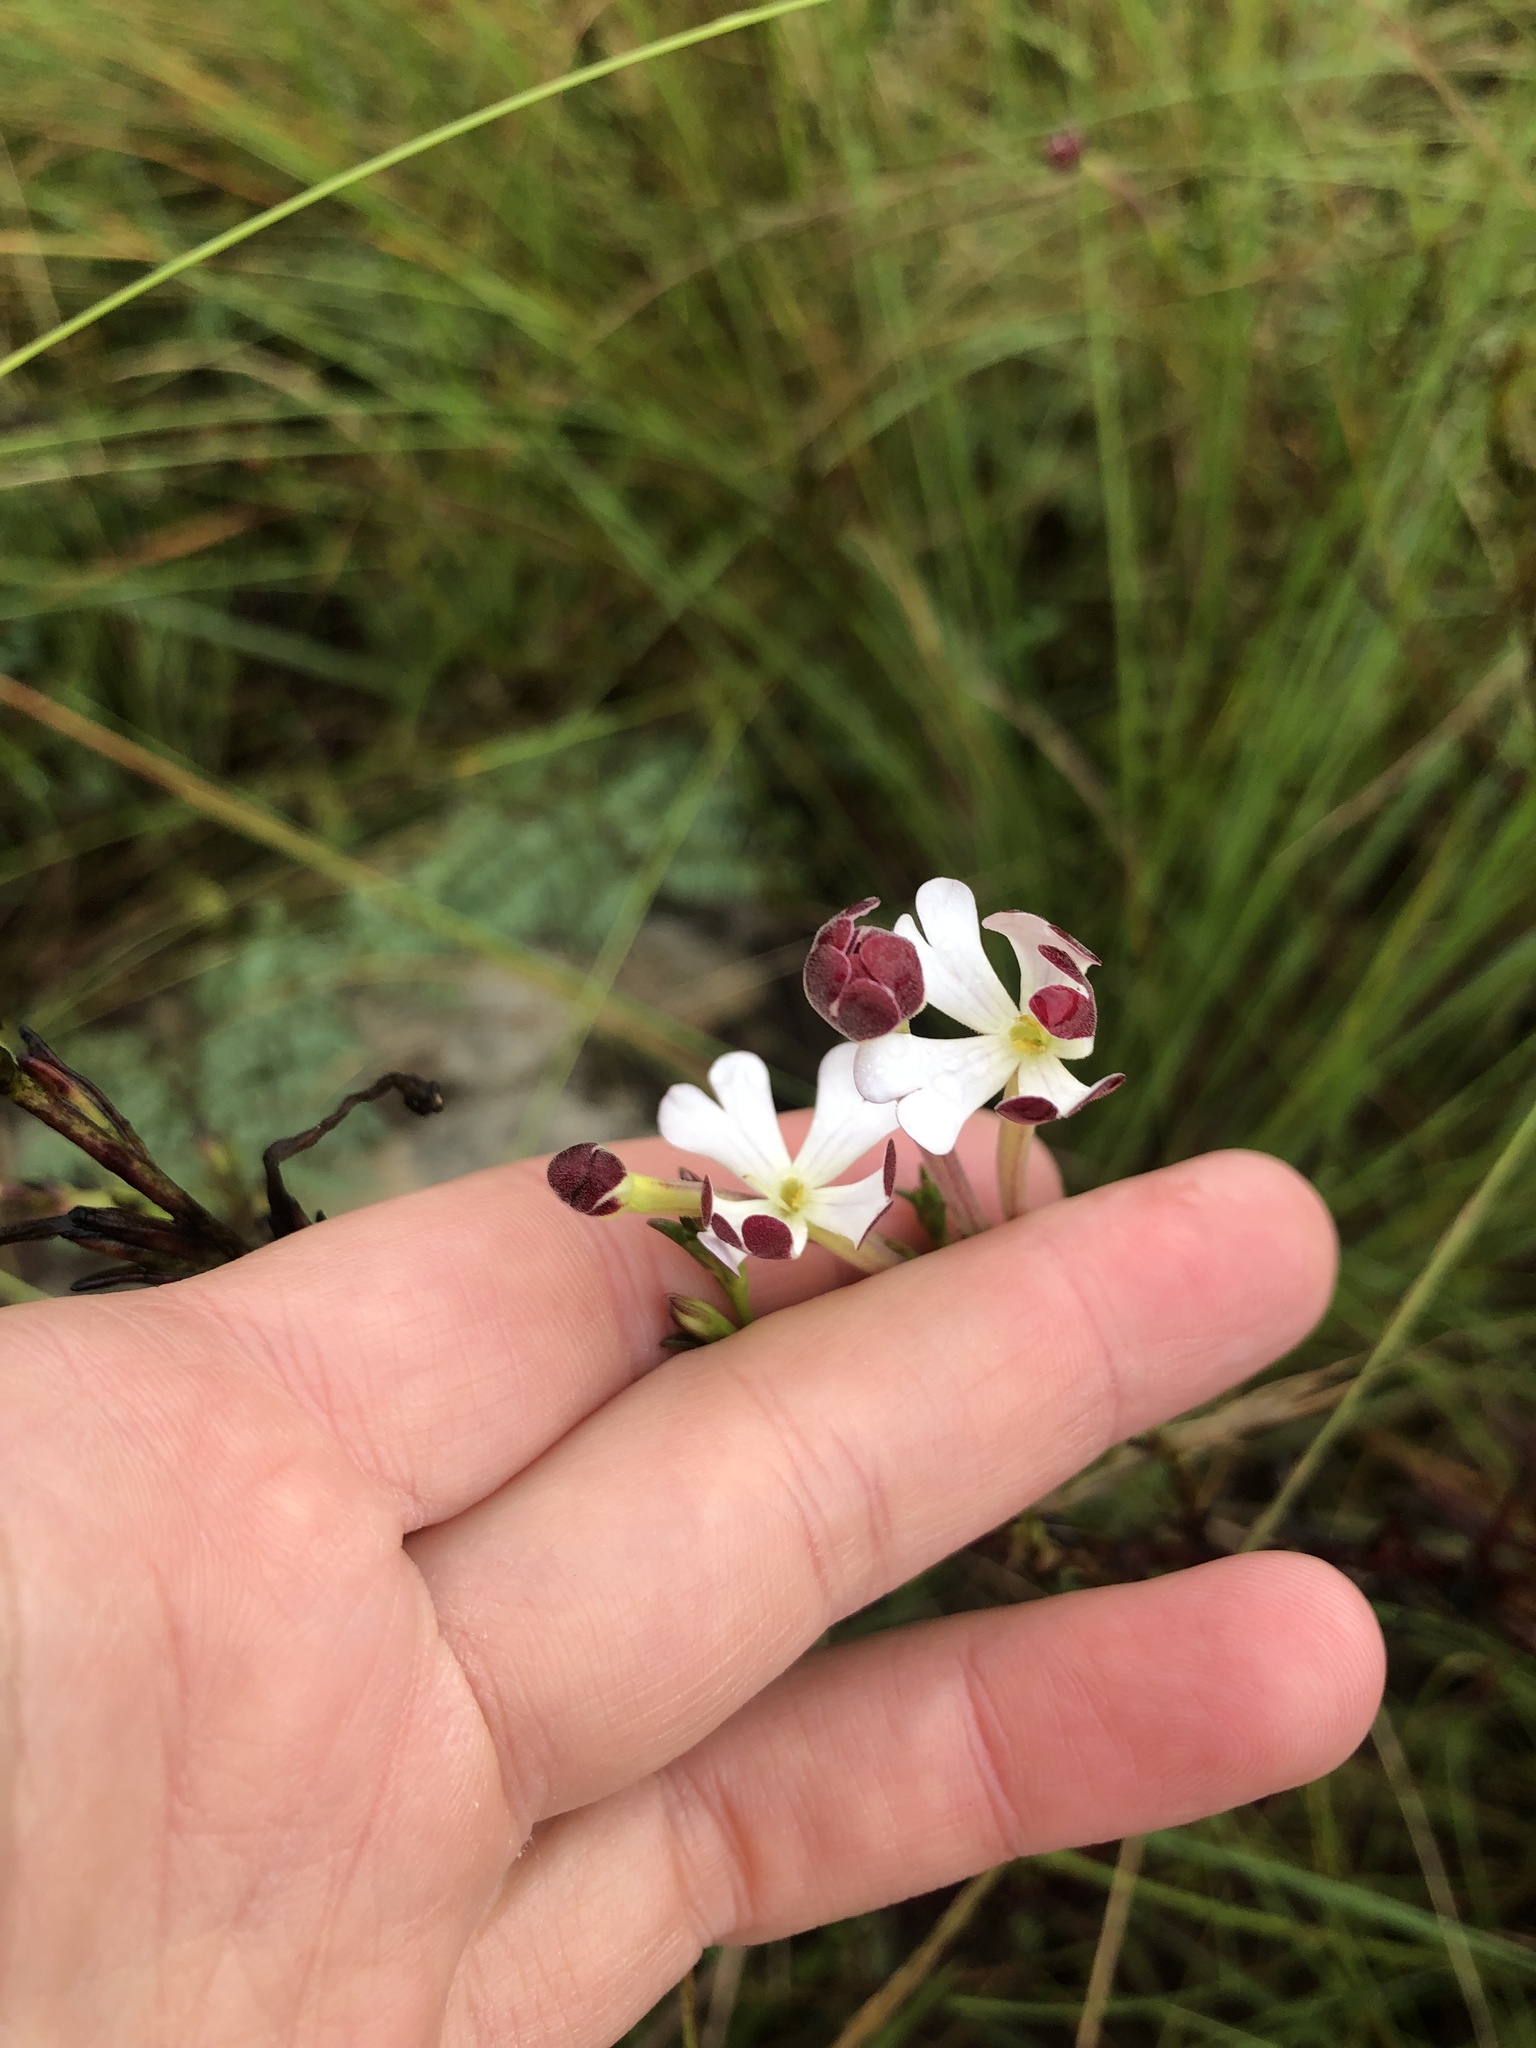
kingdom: Plantae
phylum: Tracheophyta
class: Magnoliopsida
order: Lamiales
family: Scrophulariaceae
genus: Zaluzianskya
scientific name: Zaluzianskya capensis
